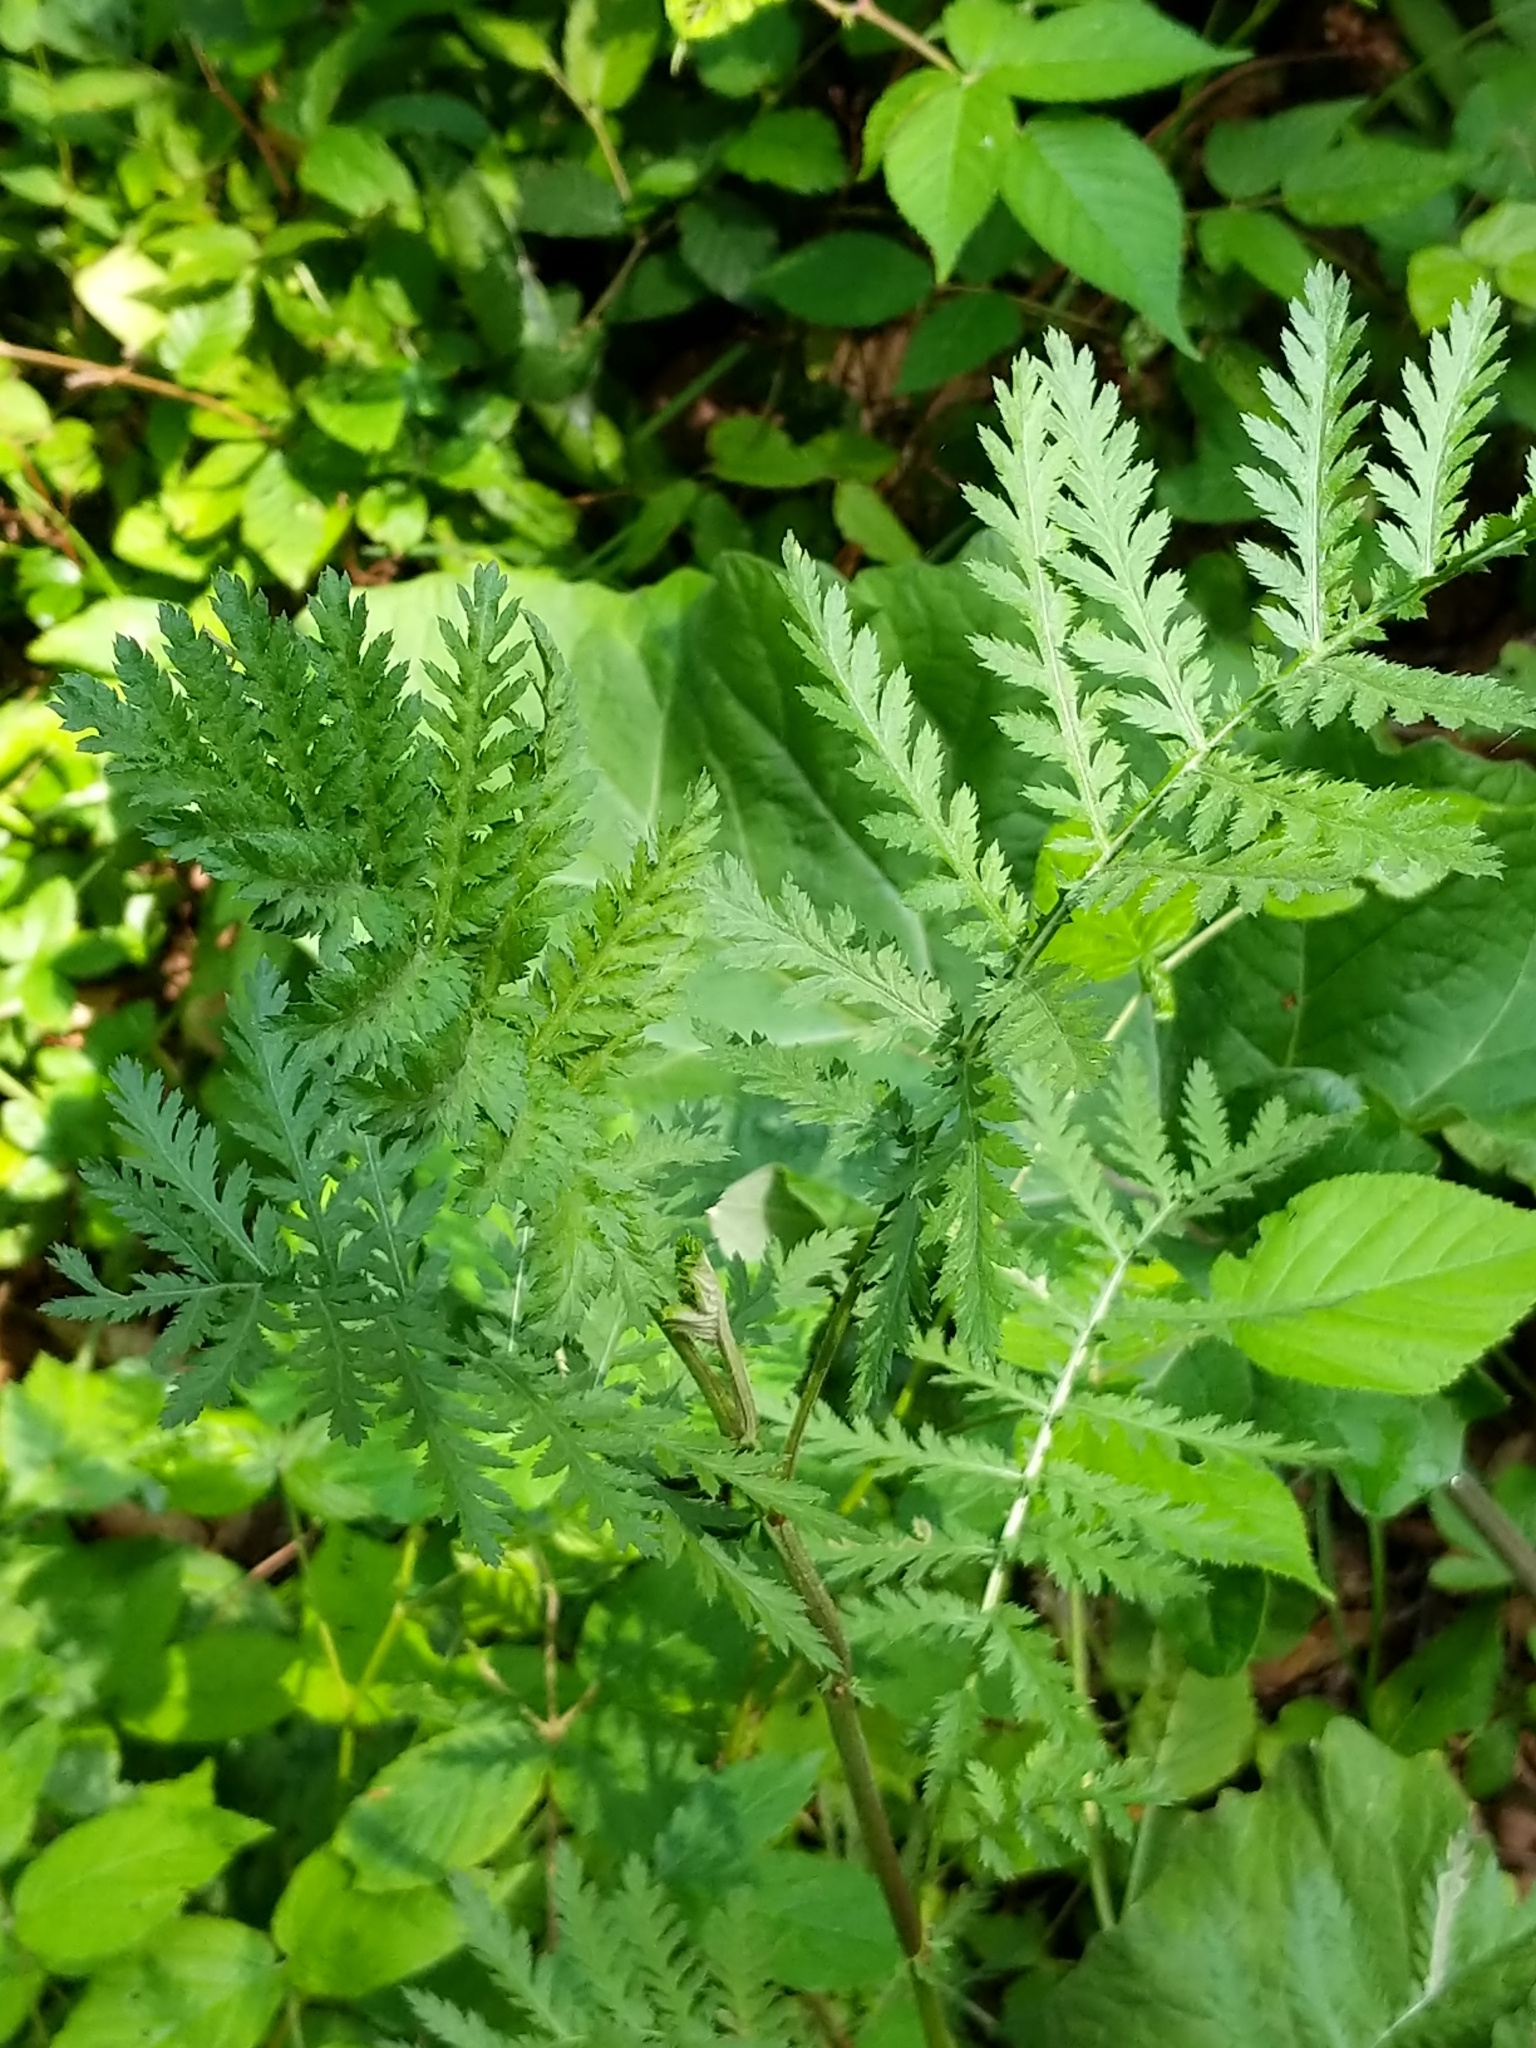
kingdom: Plantae
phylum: Tracheophyta
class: Magnoliopsida
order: Asterales
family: Asteraceae
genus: Tanacetum
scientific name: Tanacetum vulgare
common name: Common tansy
